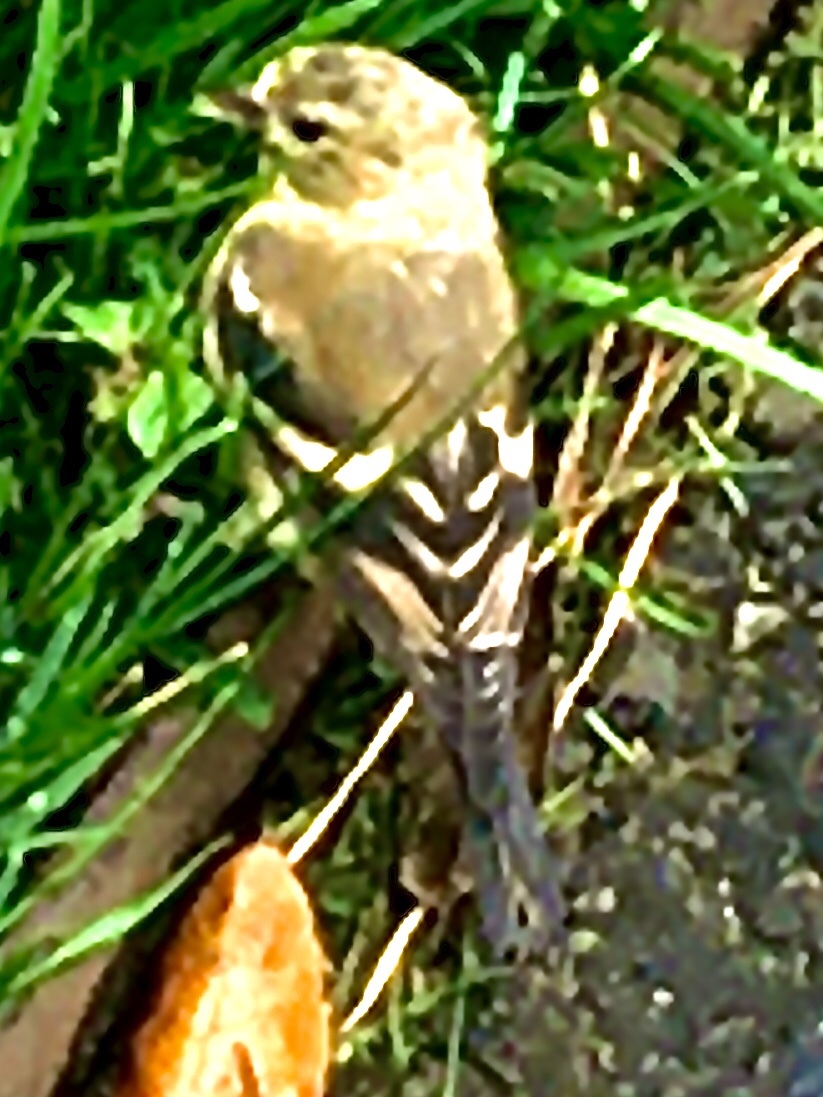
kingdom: Animalia
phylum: Chordata
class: Aves
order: Passeriformes
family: Fringillidae
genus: Spinus
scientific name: Spinus tristis
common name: American goldfinch
